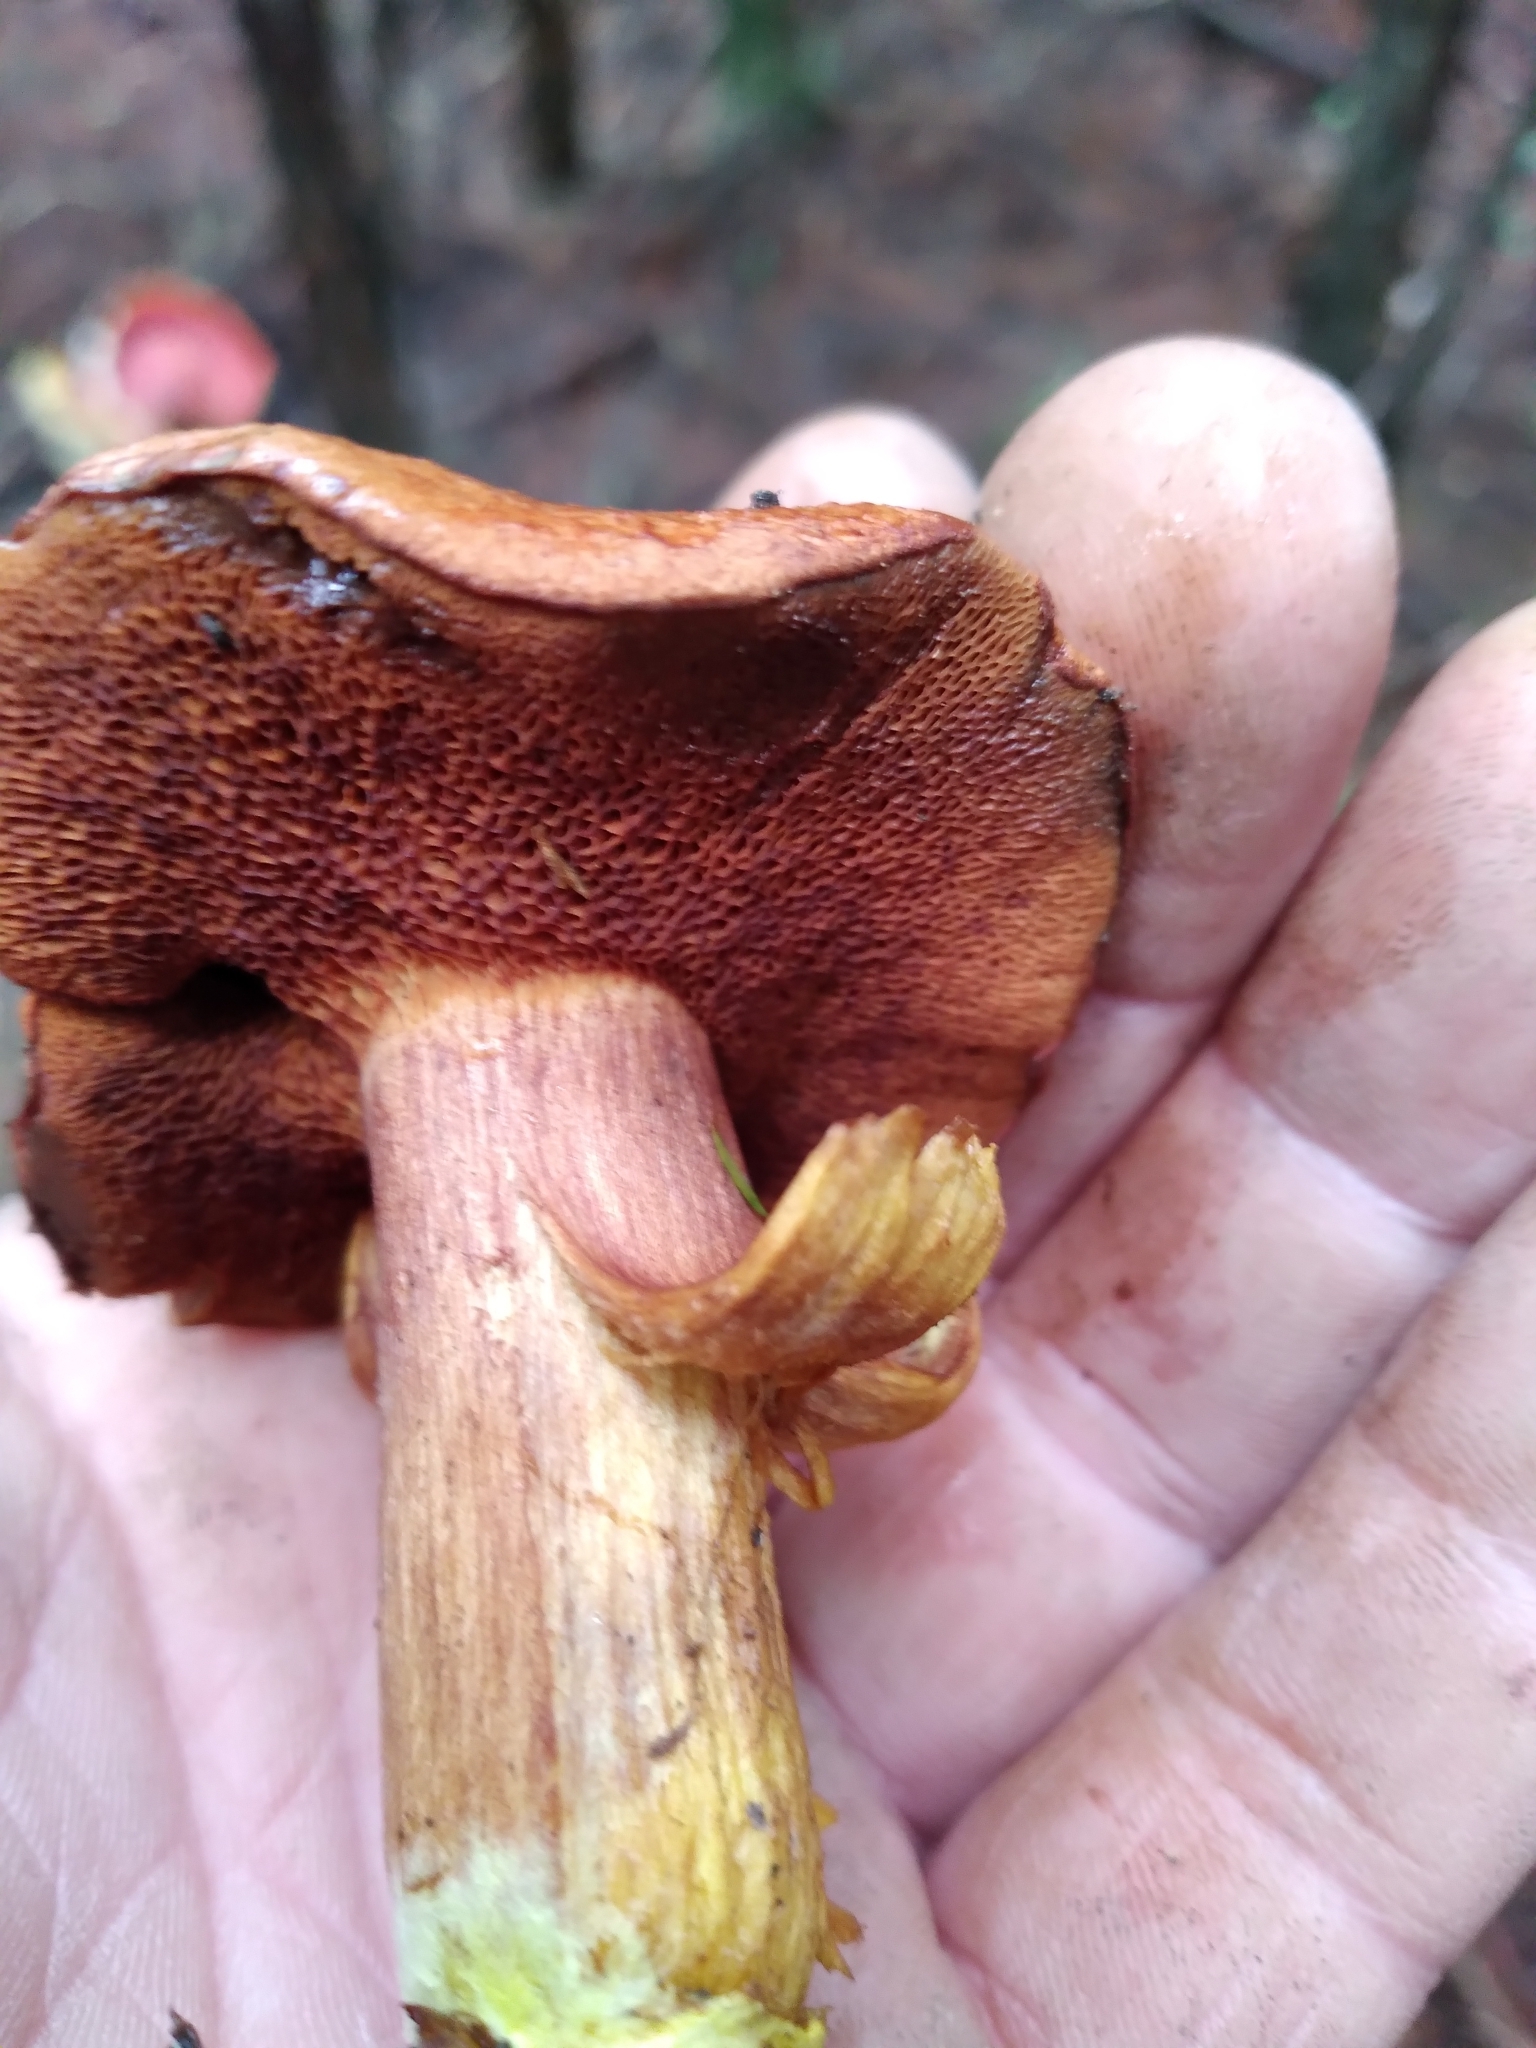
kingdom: Fungi
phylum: Basidiomycota
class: Agaricomycetes
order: Boletales
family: Boletaceae
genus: Chalciporus
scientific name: Chalciporus piperatus
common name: Peppery bolete
